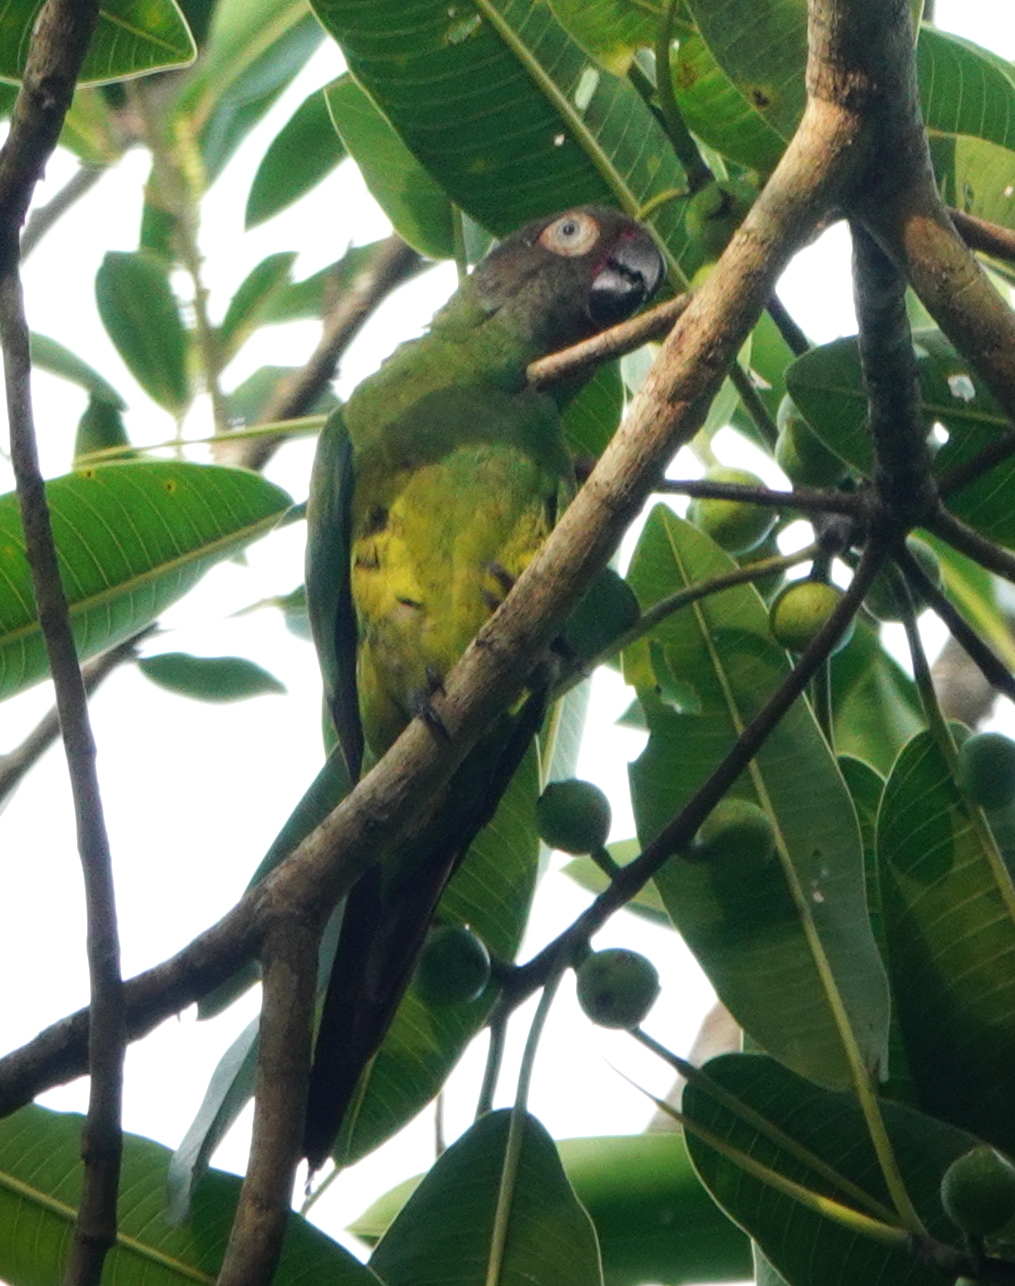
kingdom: Animalia
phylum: Chordata
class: Aves
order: Psittaciformes
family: Psittacidae
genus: Aratinga
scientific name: Aratinga weddellii
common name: Dusky-headed parakeet
